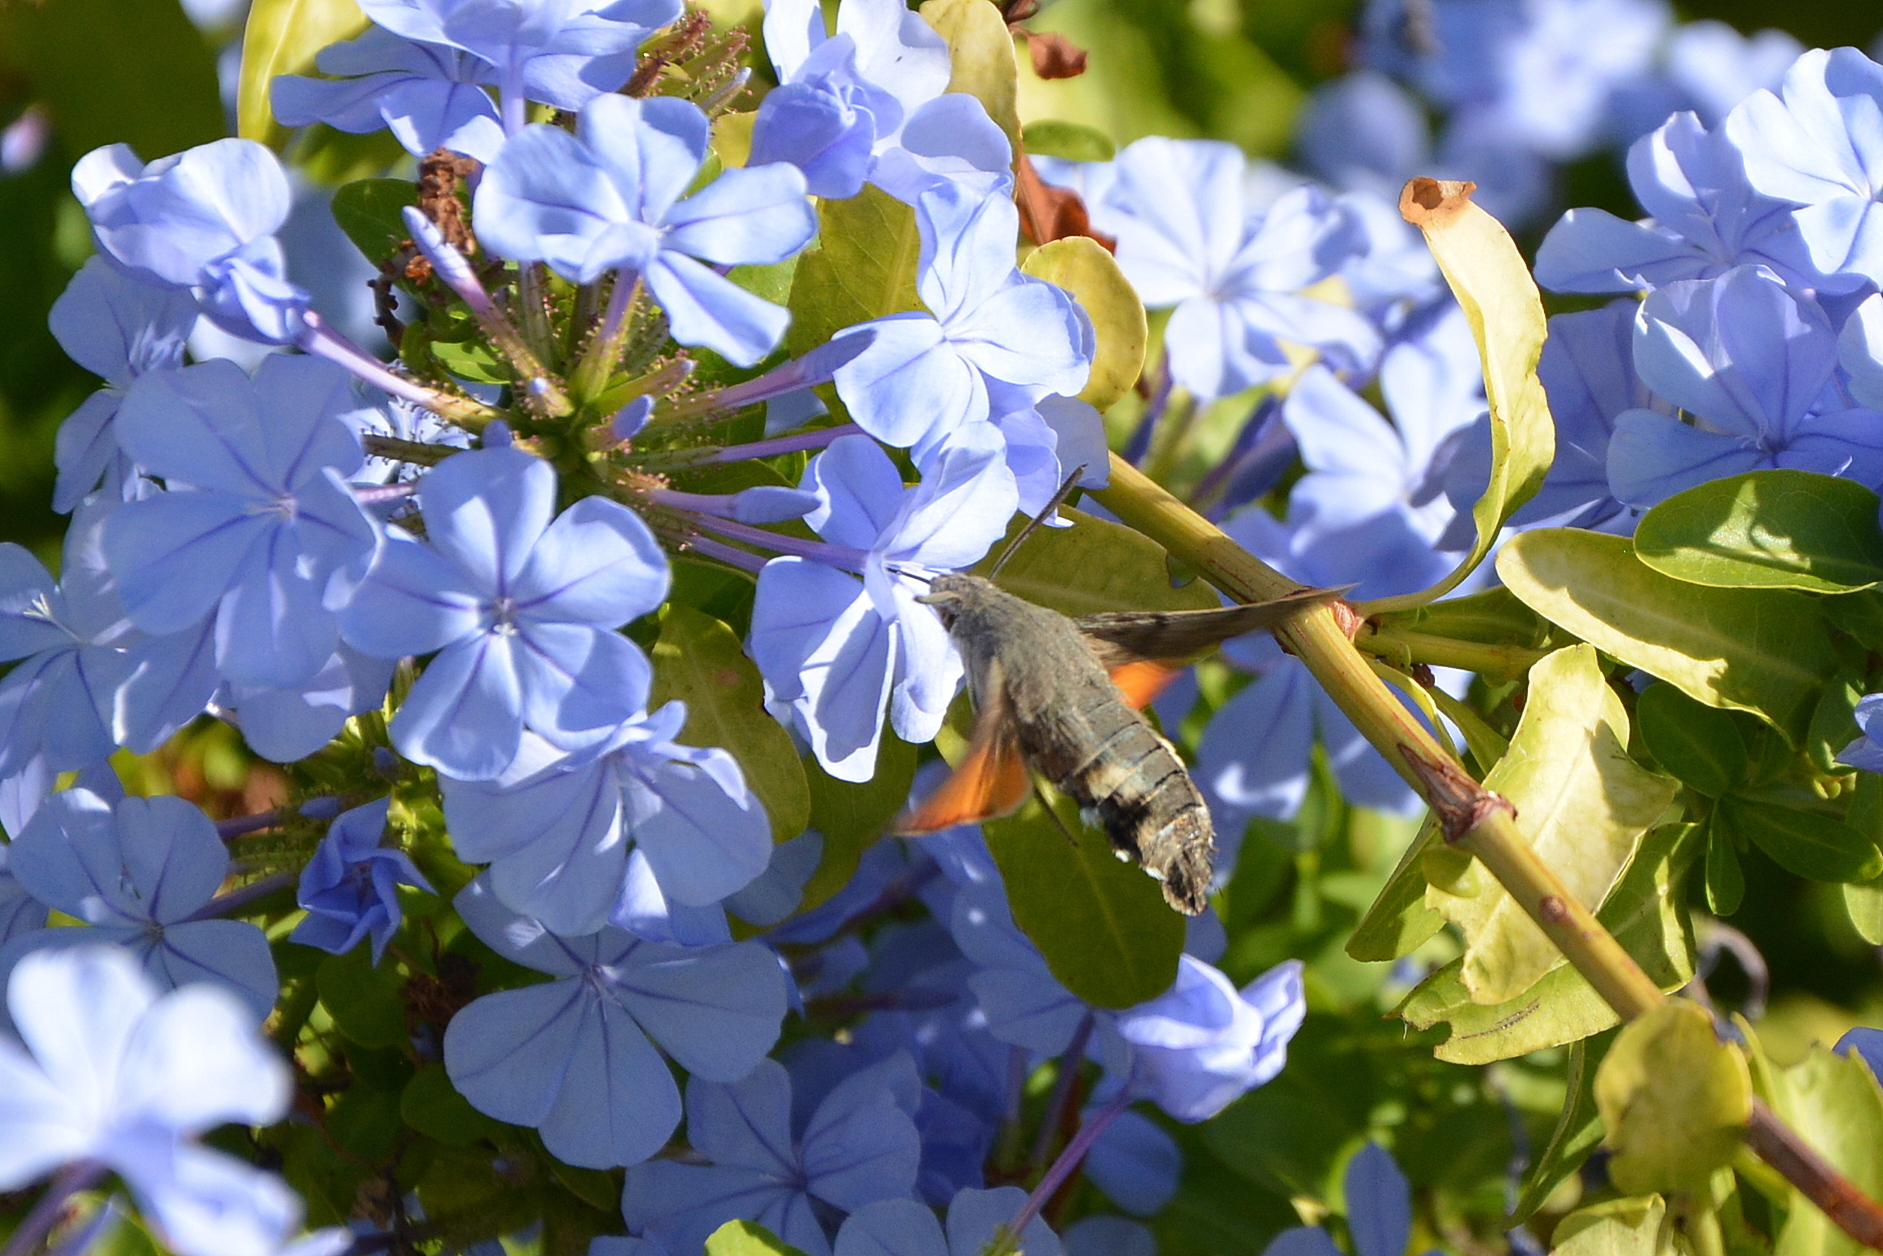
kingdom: Animalia
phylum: Arthropoda
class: Insecta
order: Lepidoptera
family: Sphingidae
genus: Macroglossum
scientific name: Macroglossum stellatarum
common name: Humming-bird hawk-moth
